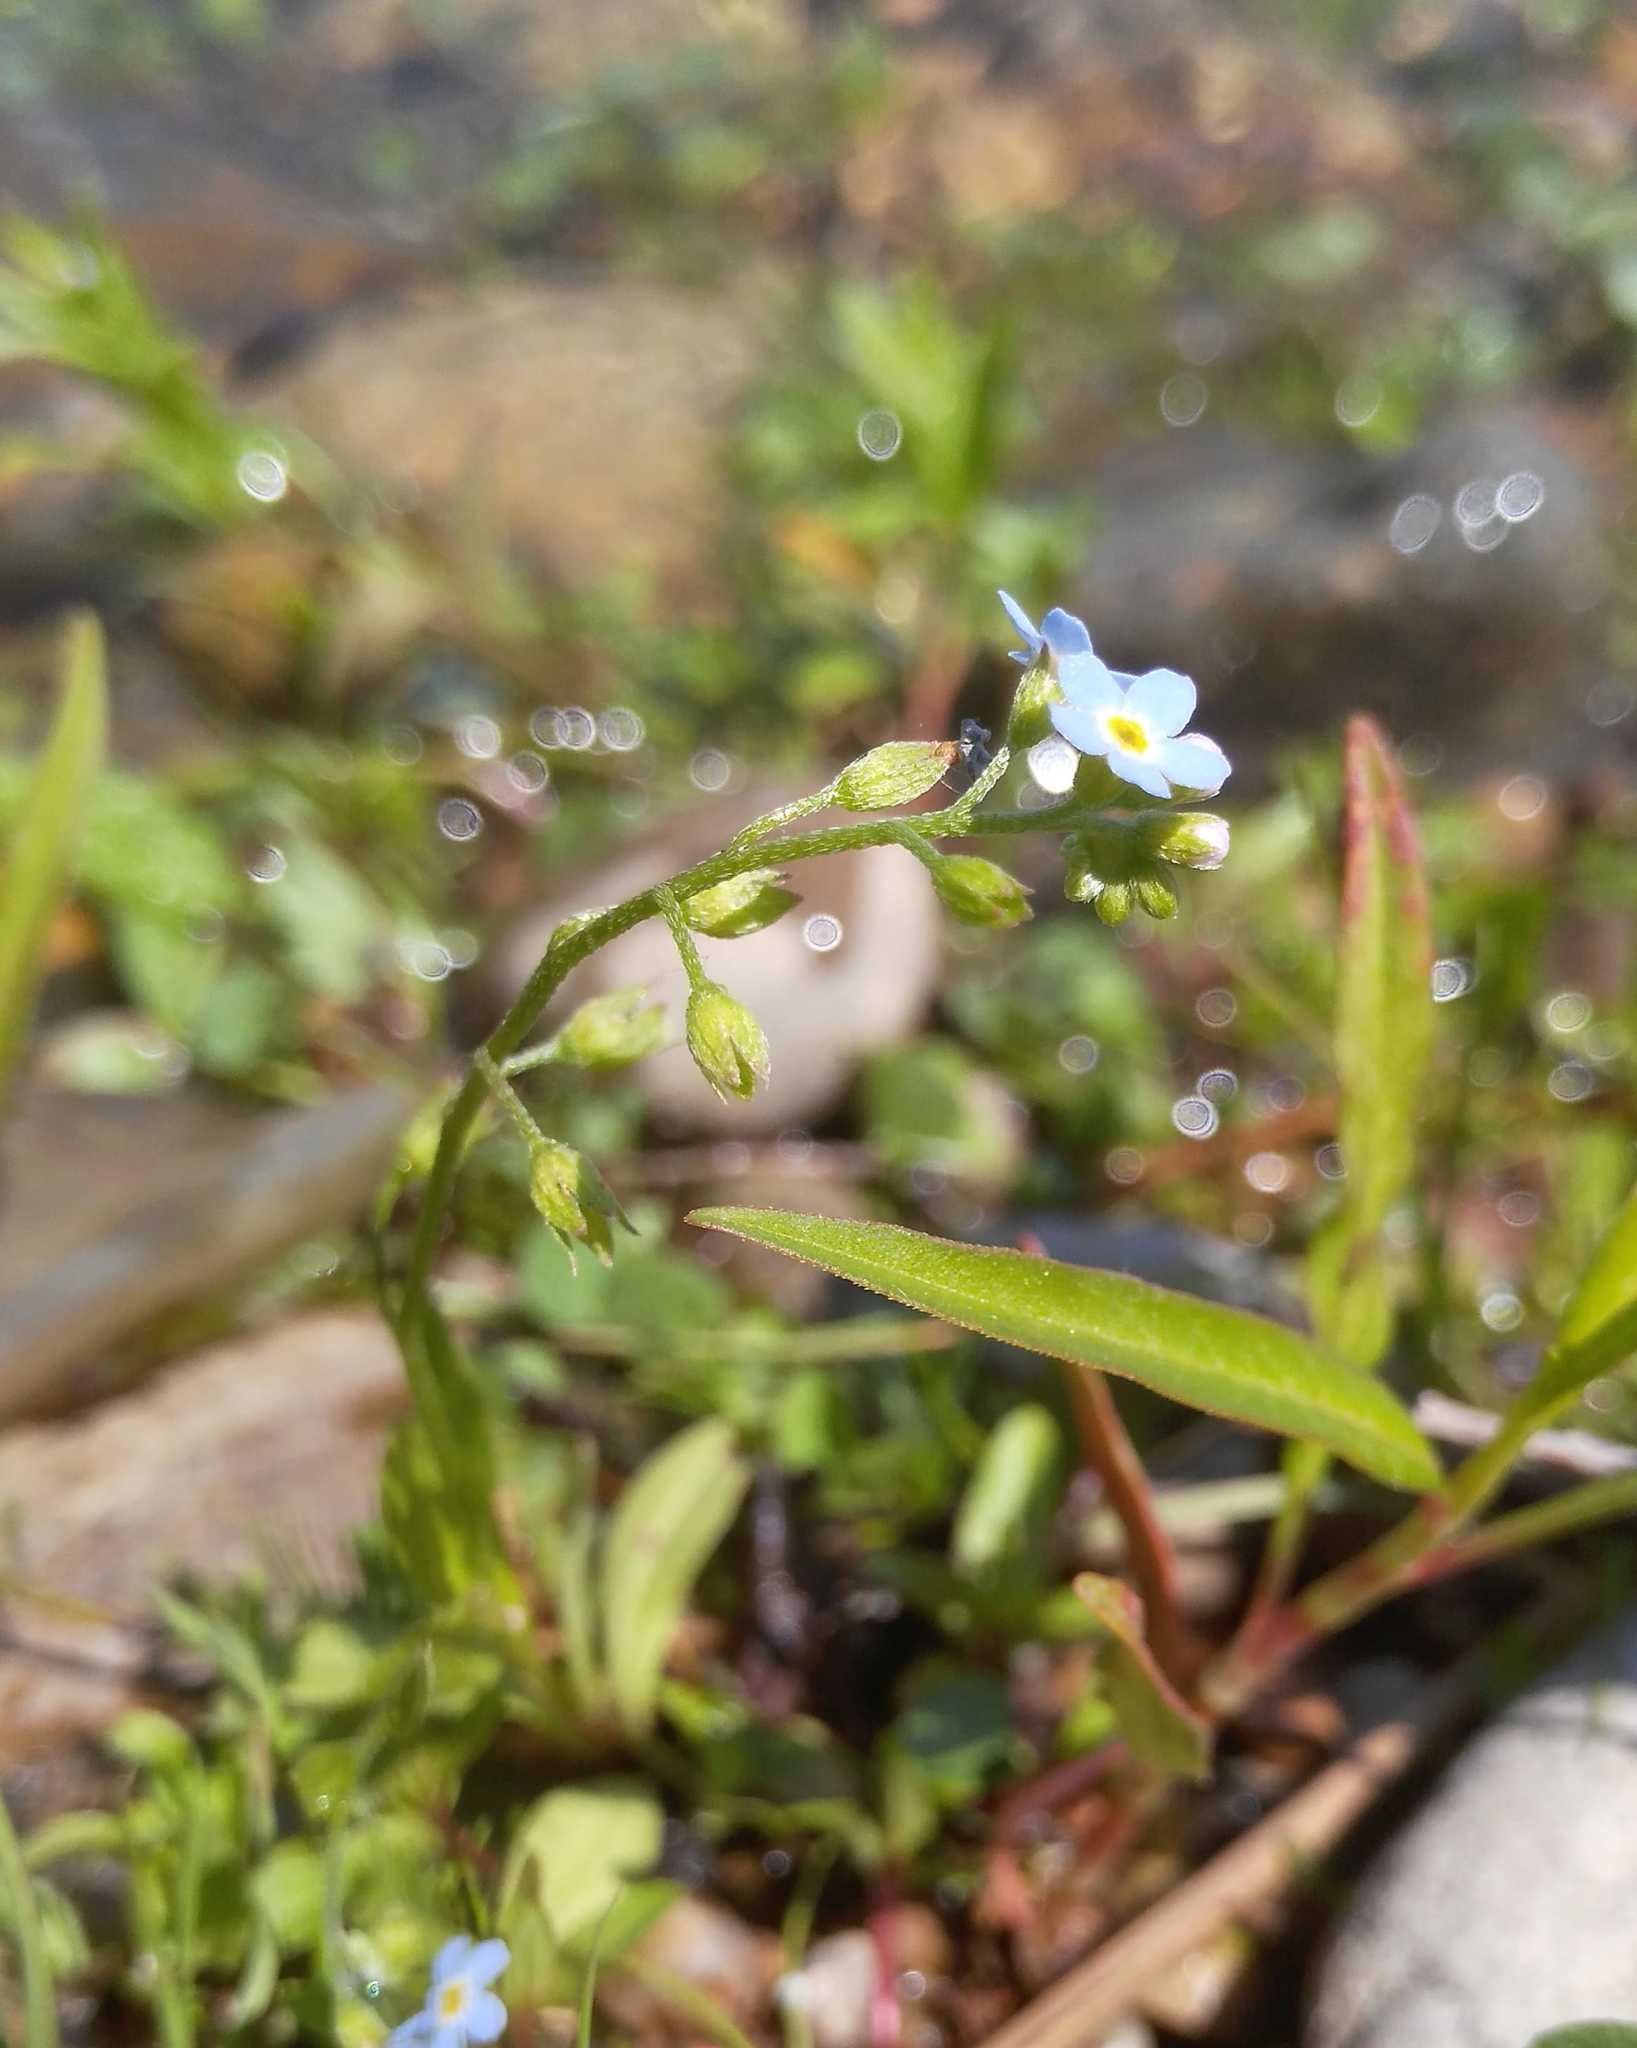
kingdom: Plantae
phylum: Tracheophyta
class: Magnoliopsida
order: Boraginales
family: Boraginaceae
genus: Myosotis
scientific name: Myosotis scorpioides
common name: Water forget-me-not
